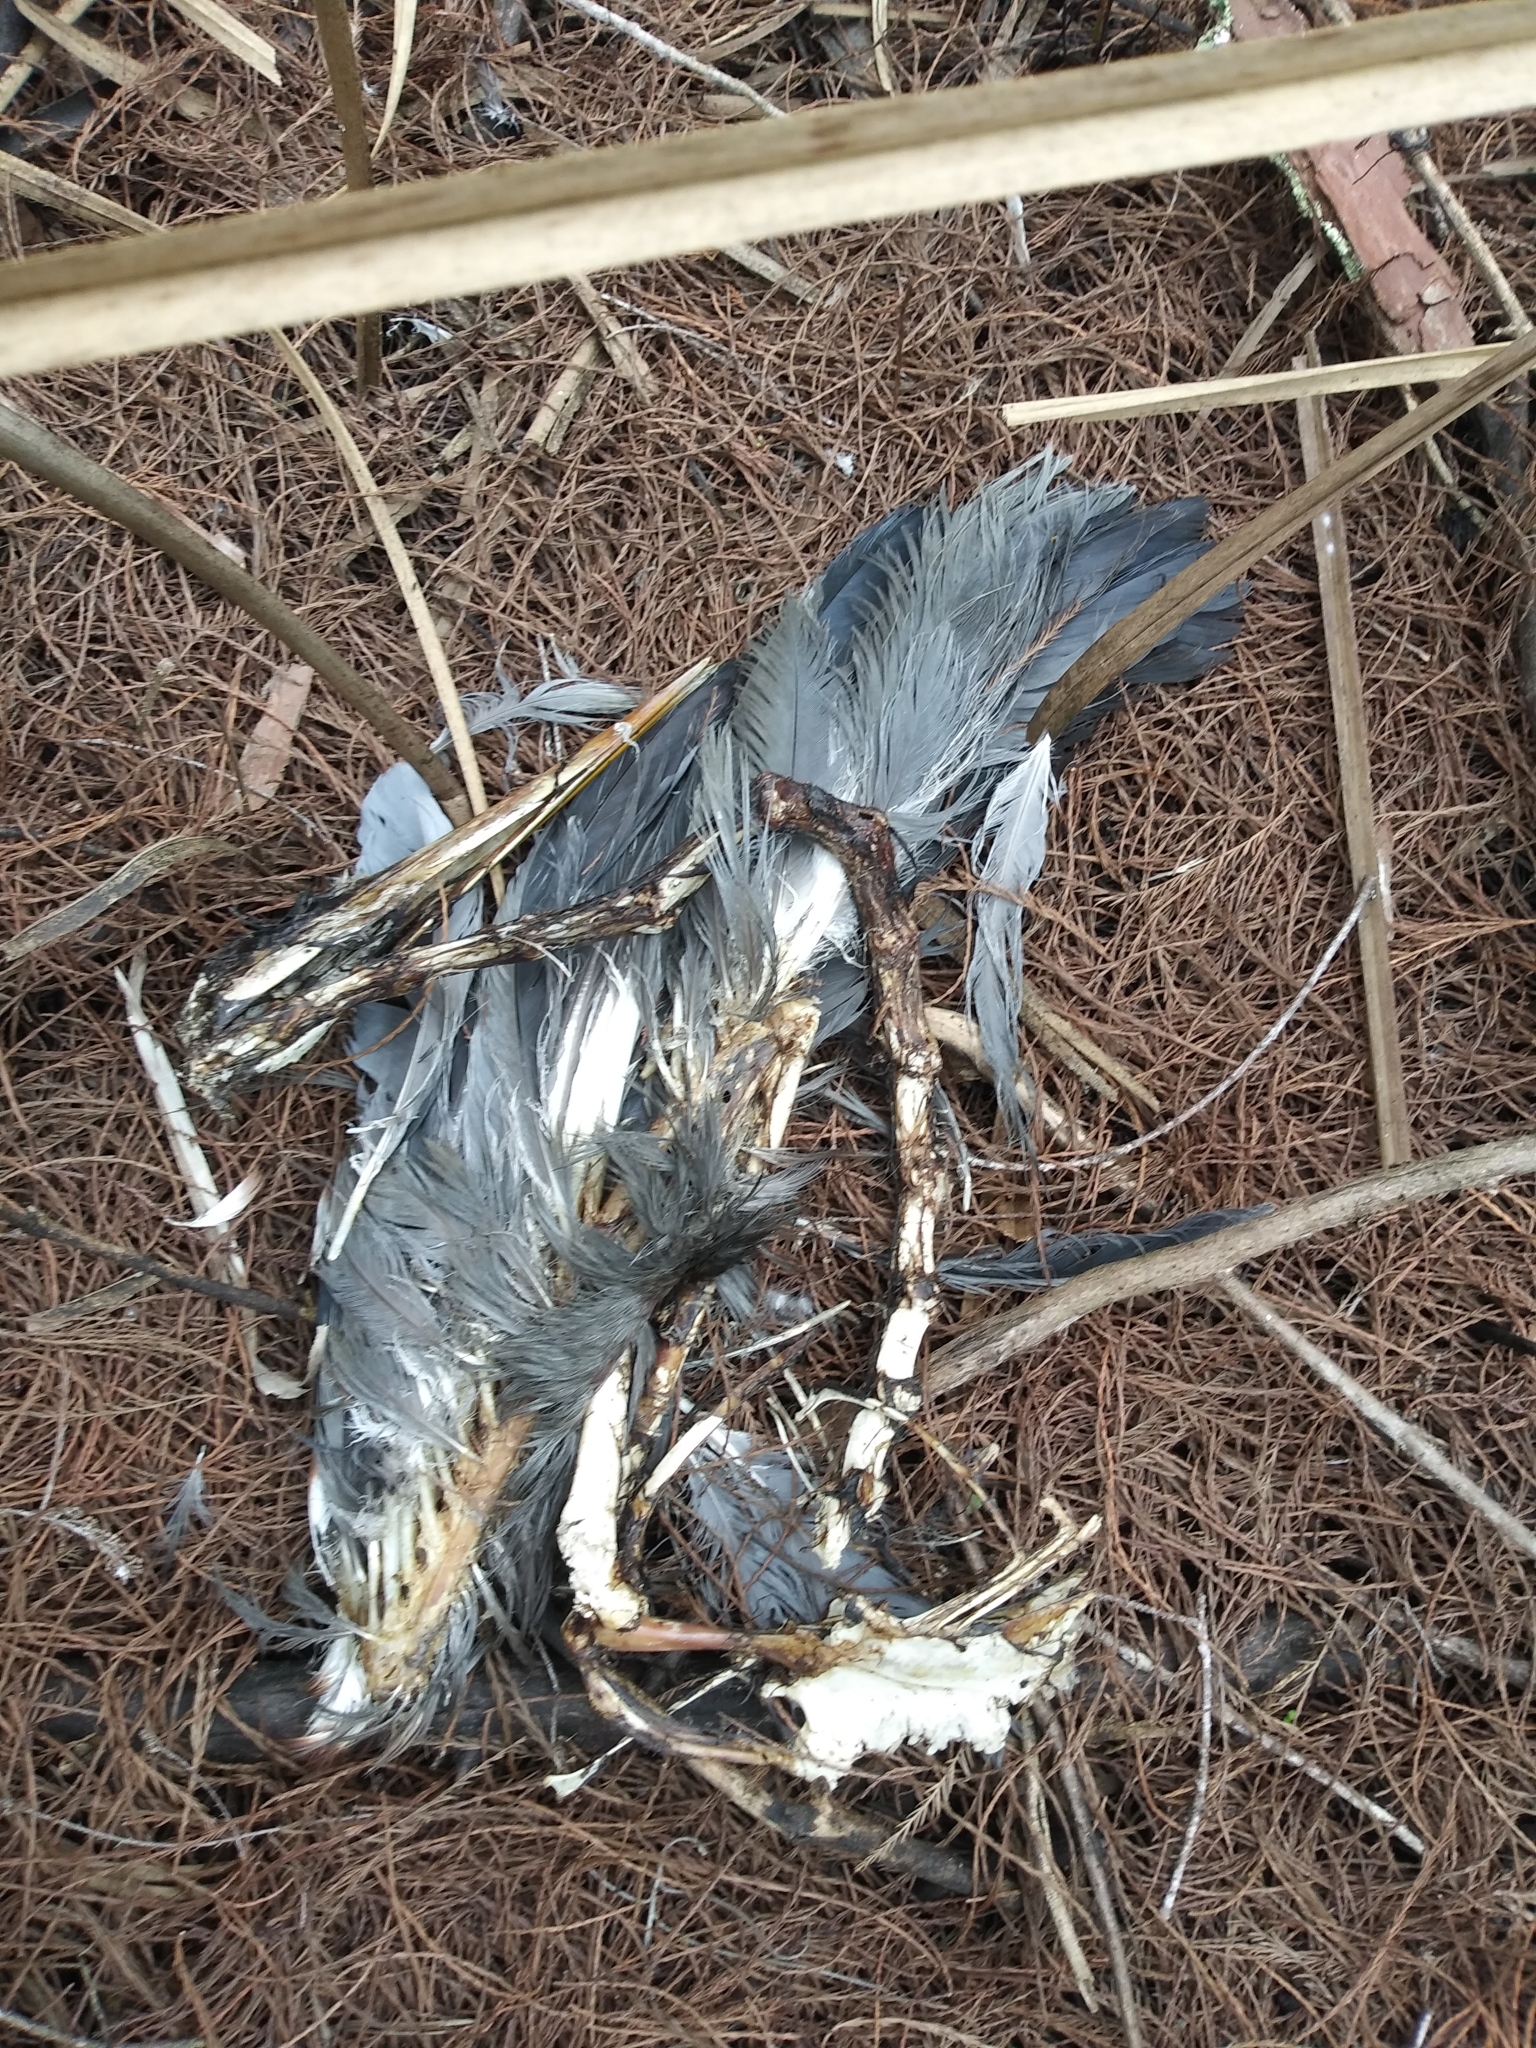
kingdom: Animalia
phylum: Chordata
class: Aves
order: Pelecaniformes
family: Ardeidae
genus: Ardea
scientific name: Ardea herodias
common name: Great blue heron
